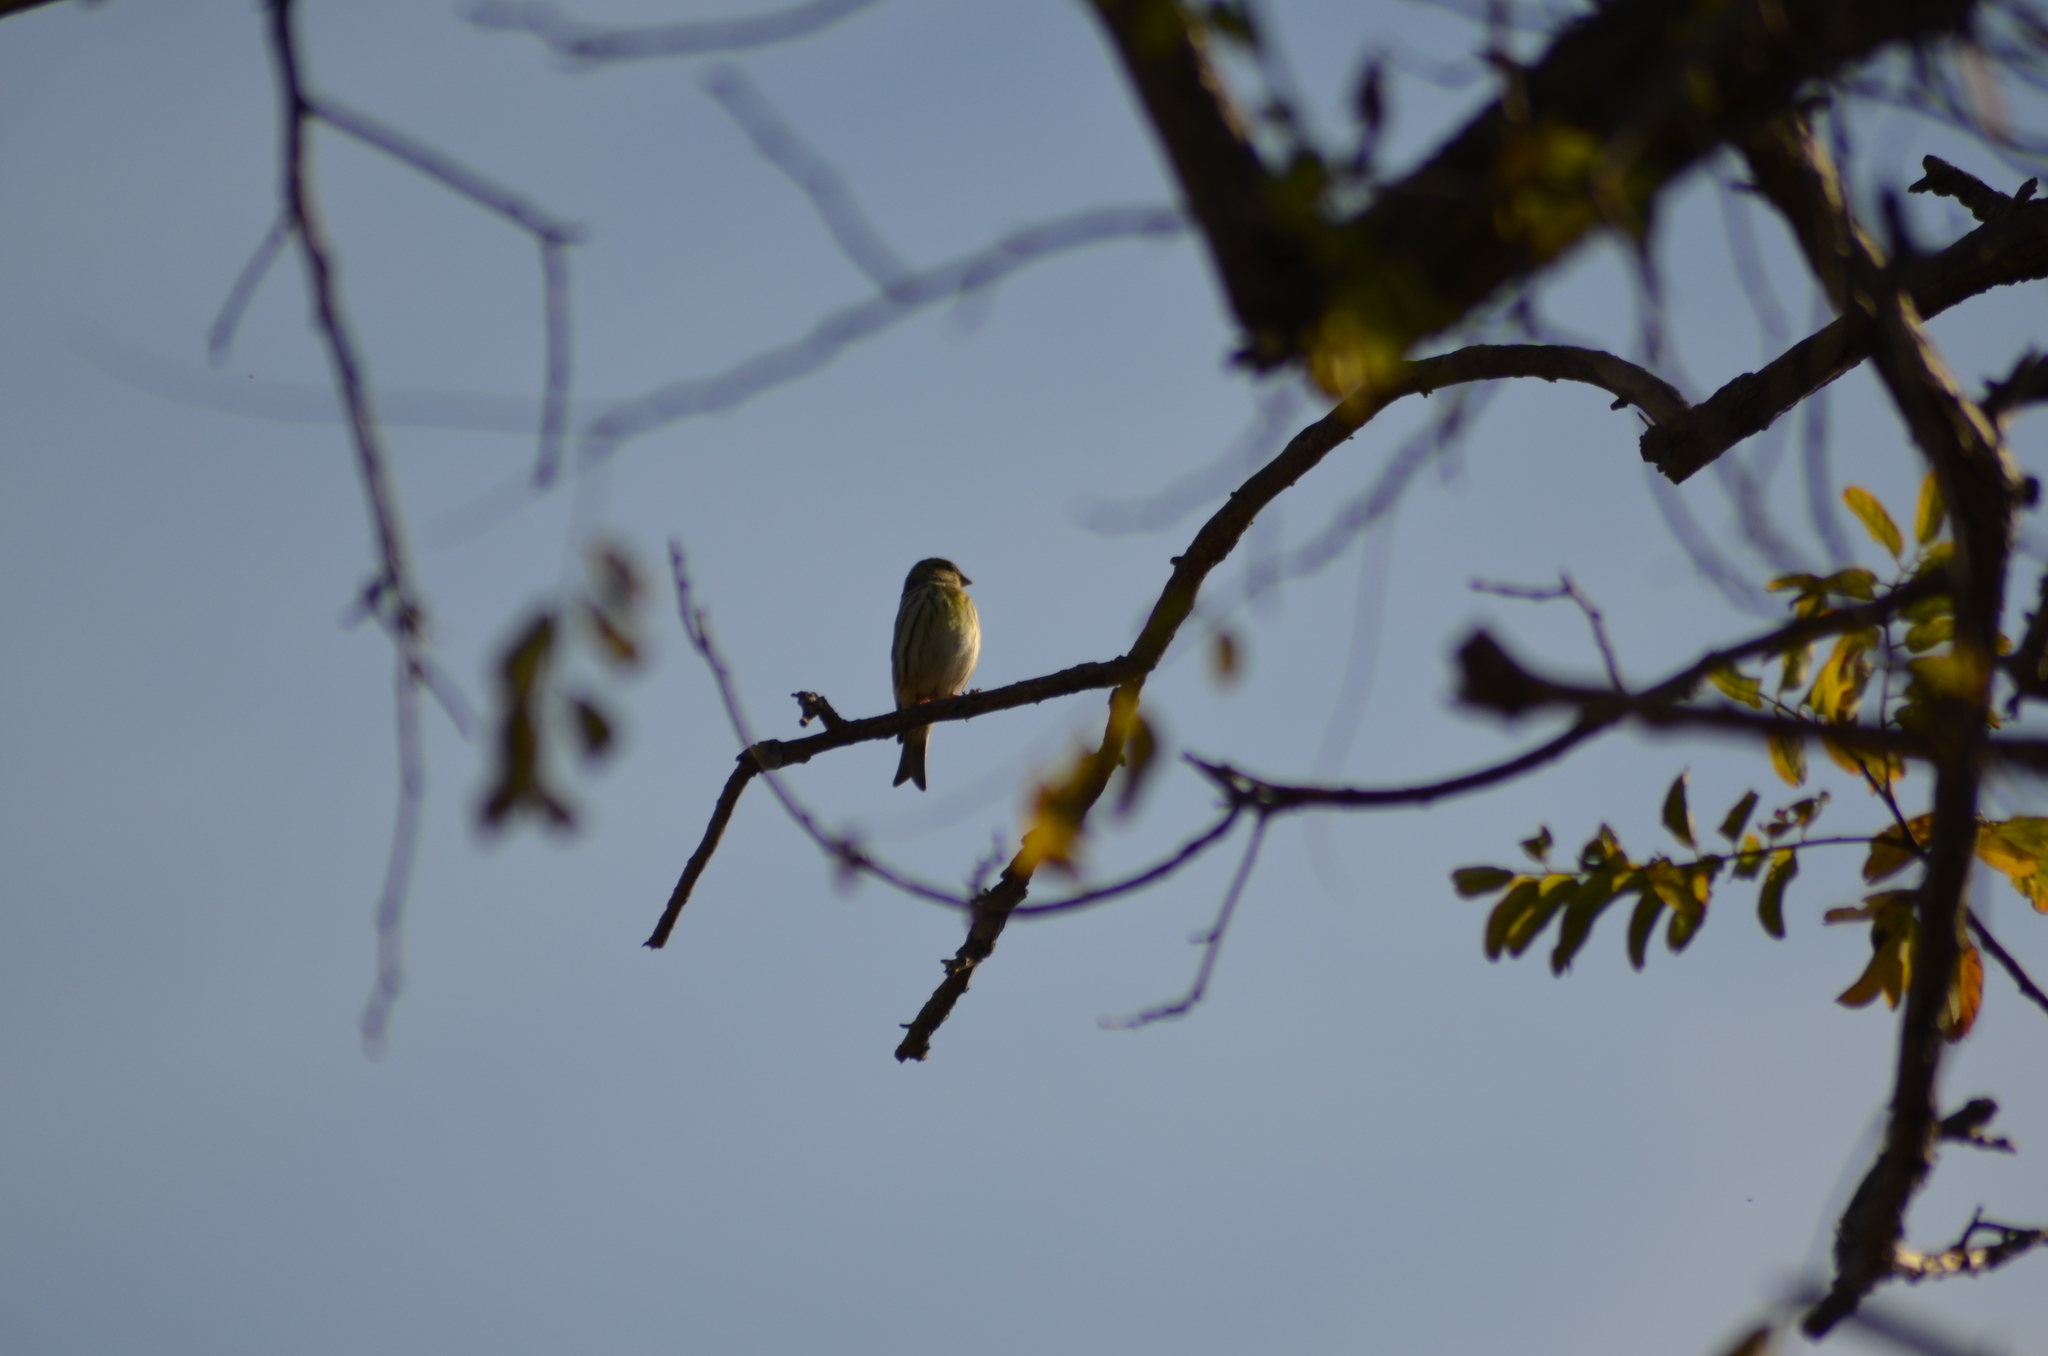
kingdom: Animalia
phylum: Chordata
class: Aves
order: Passeriformes
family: Fringillidae
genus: Serinus
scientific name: Serinus serinus
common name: European serin
